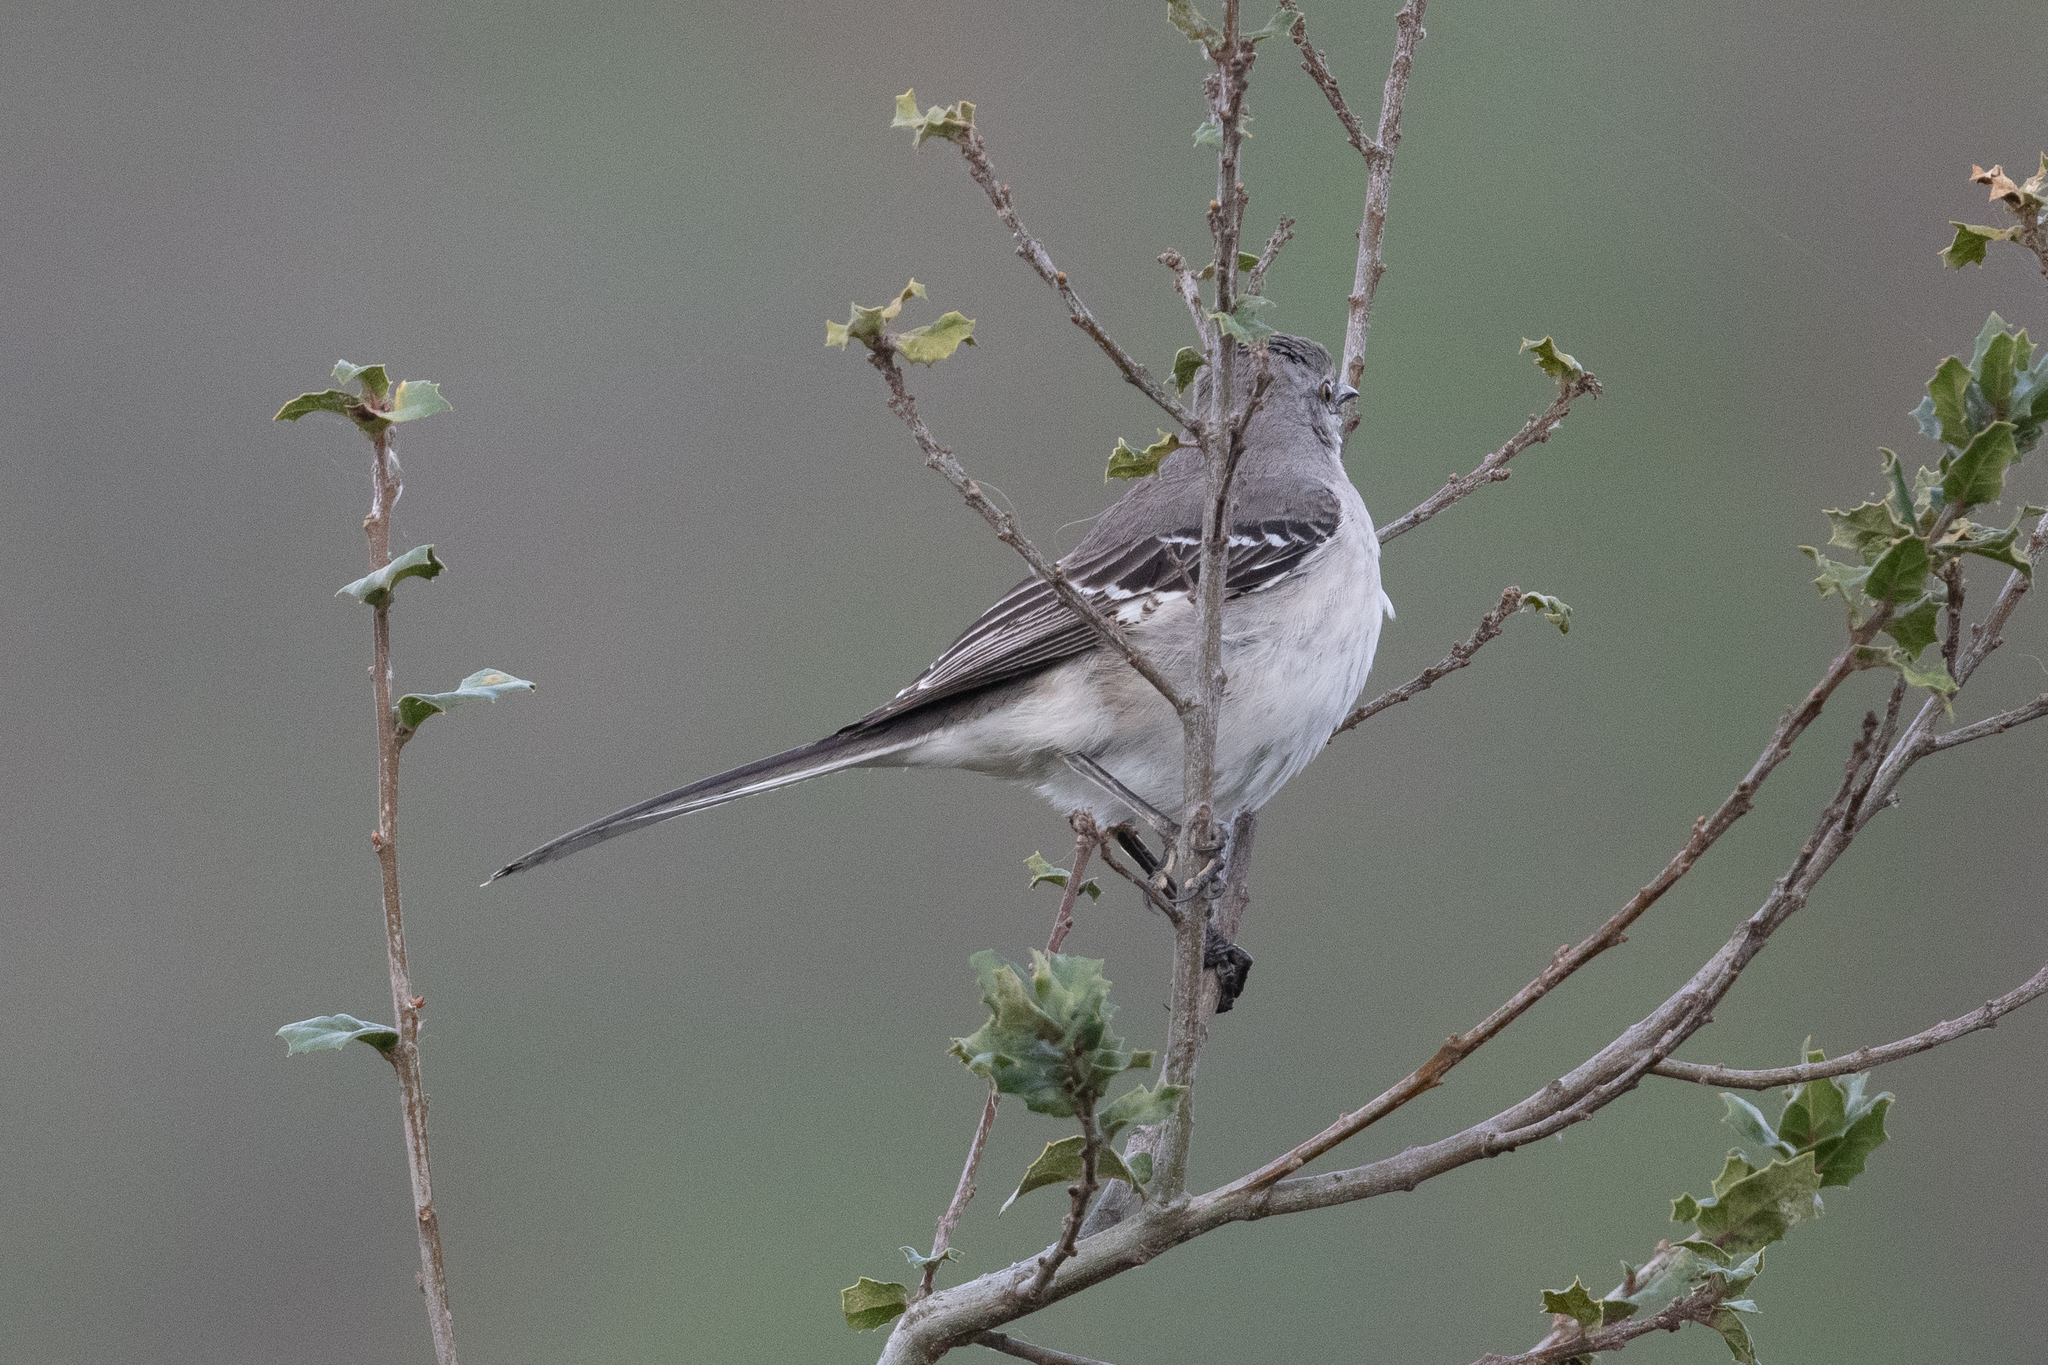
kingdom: Animalia
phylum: Chordata
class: Aves
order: Passeriformes
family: Mimidae
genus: Mimus
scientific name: Mimus polyglottos
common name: Northern mockingbird
